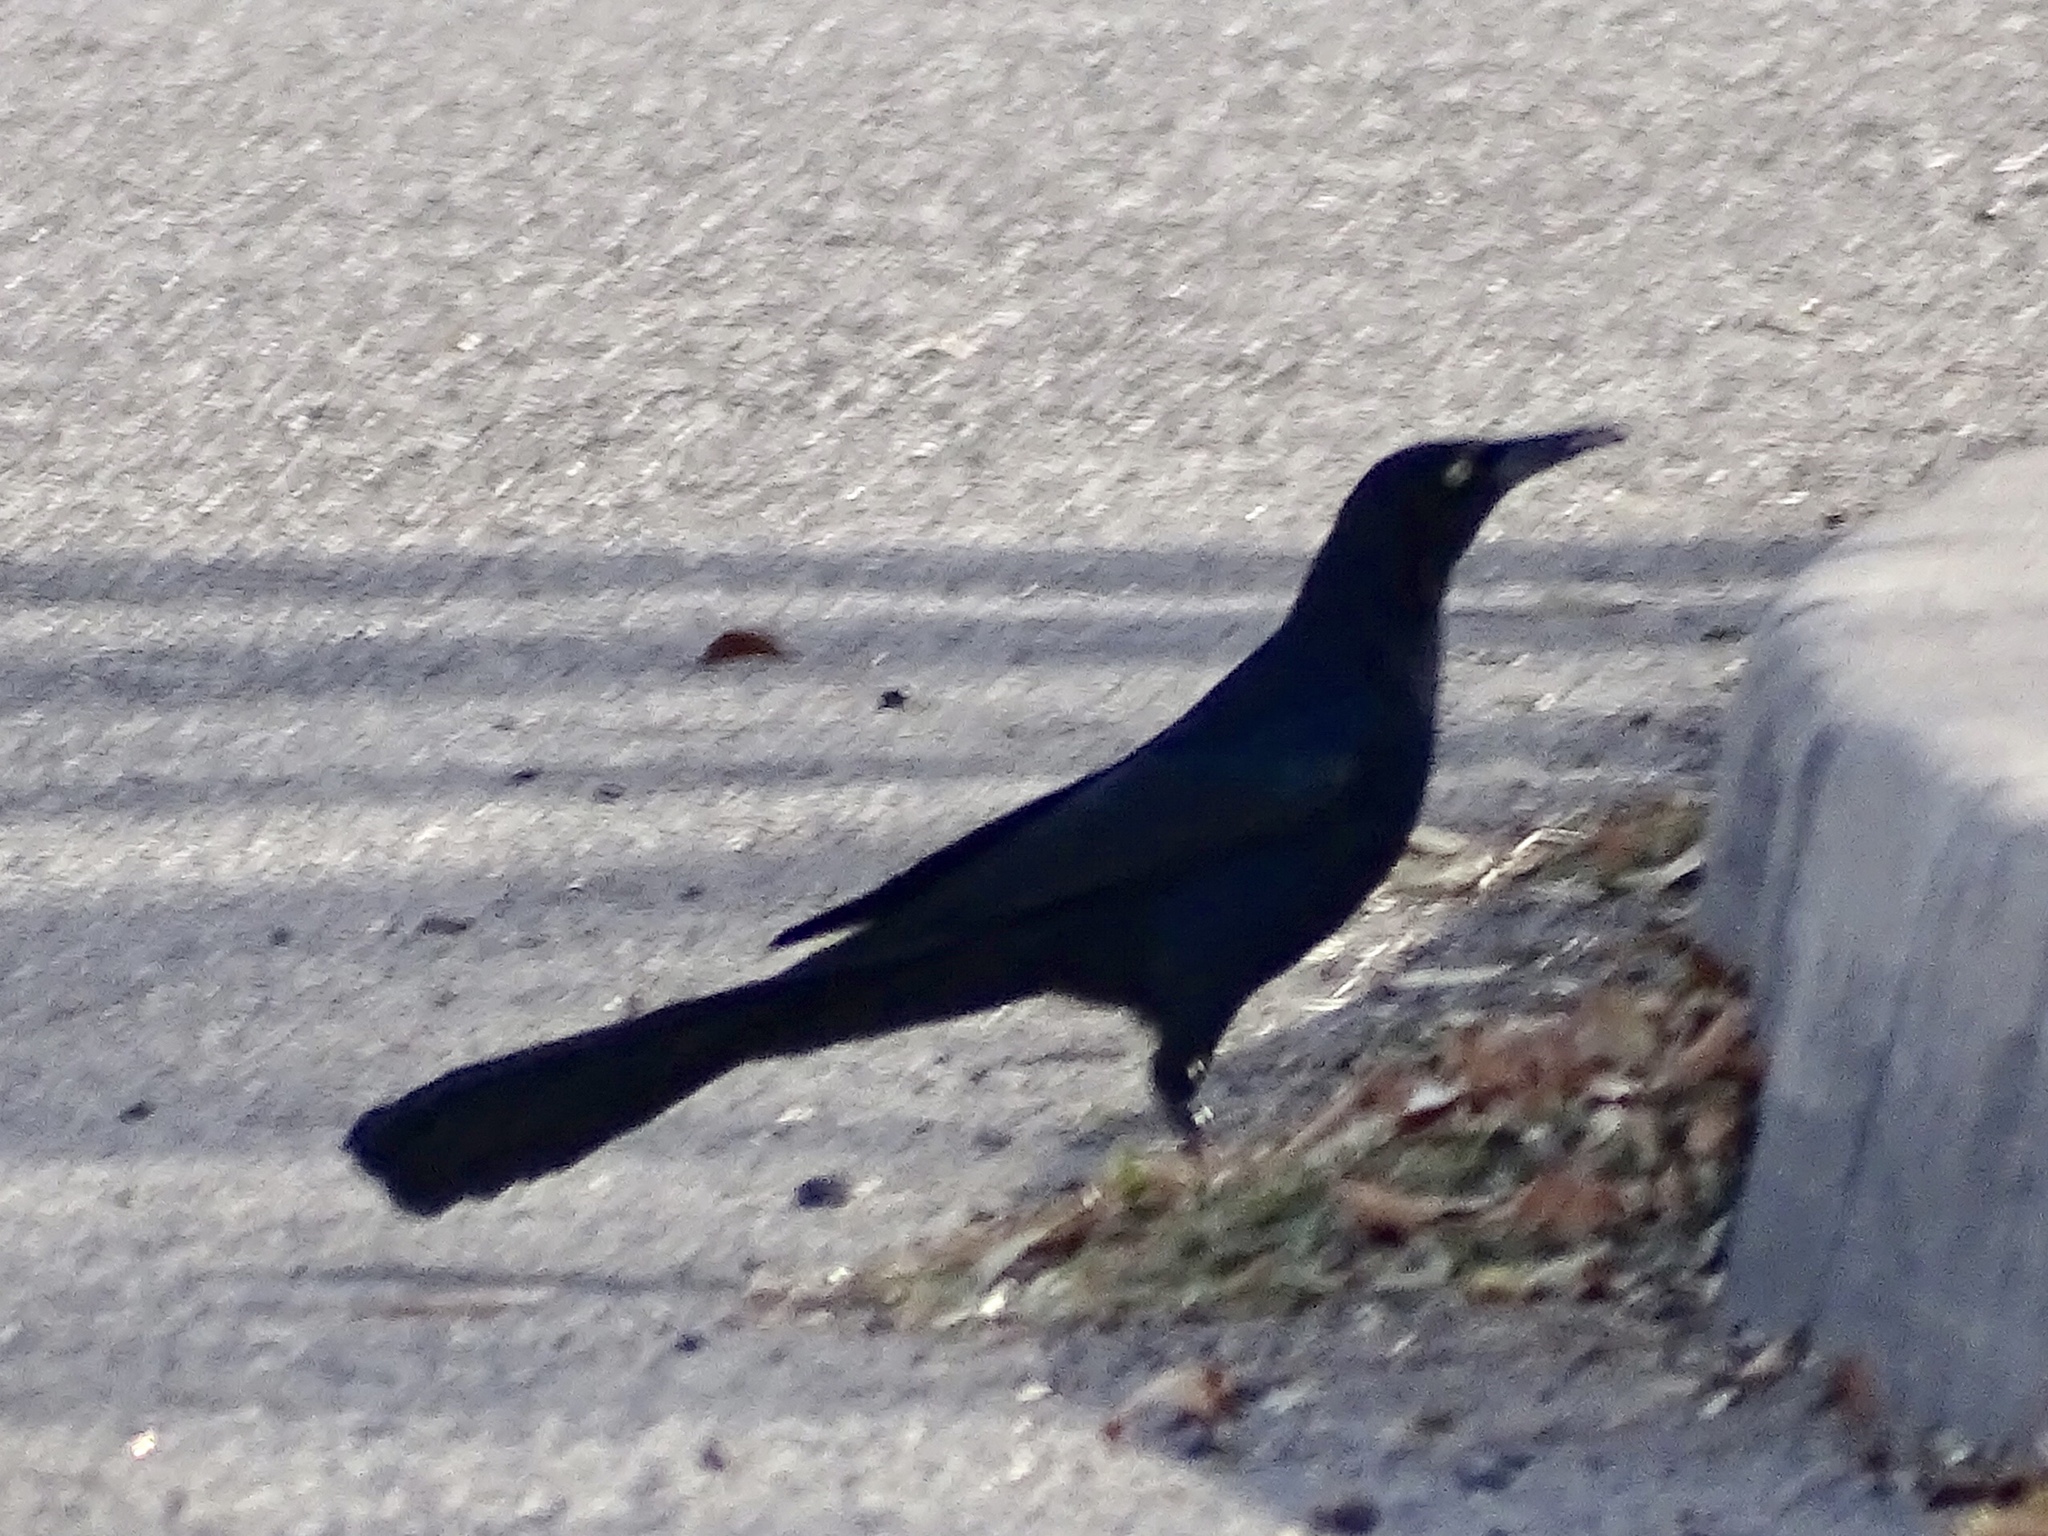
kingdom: Animalia
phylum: Chordata
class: Aves
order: Passeriformes
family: Icteridae
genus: Quiscalus
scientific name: Quiscalus mexicanus
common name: Great-tailed grackle
